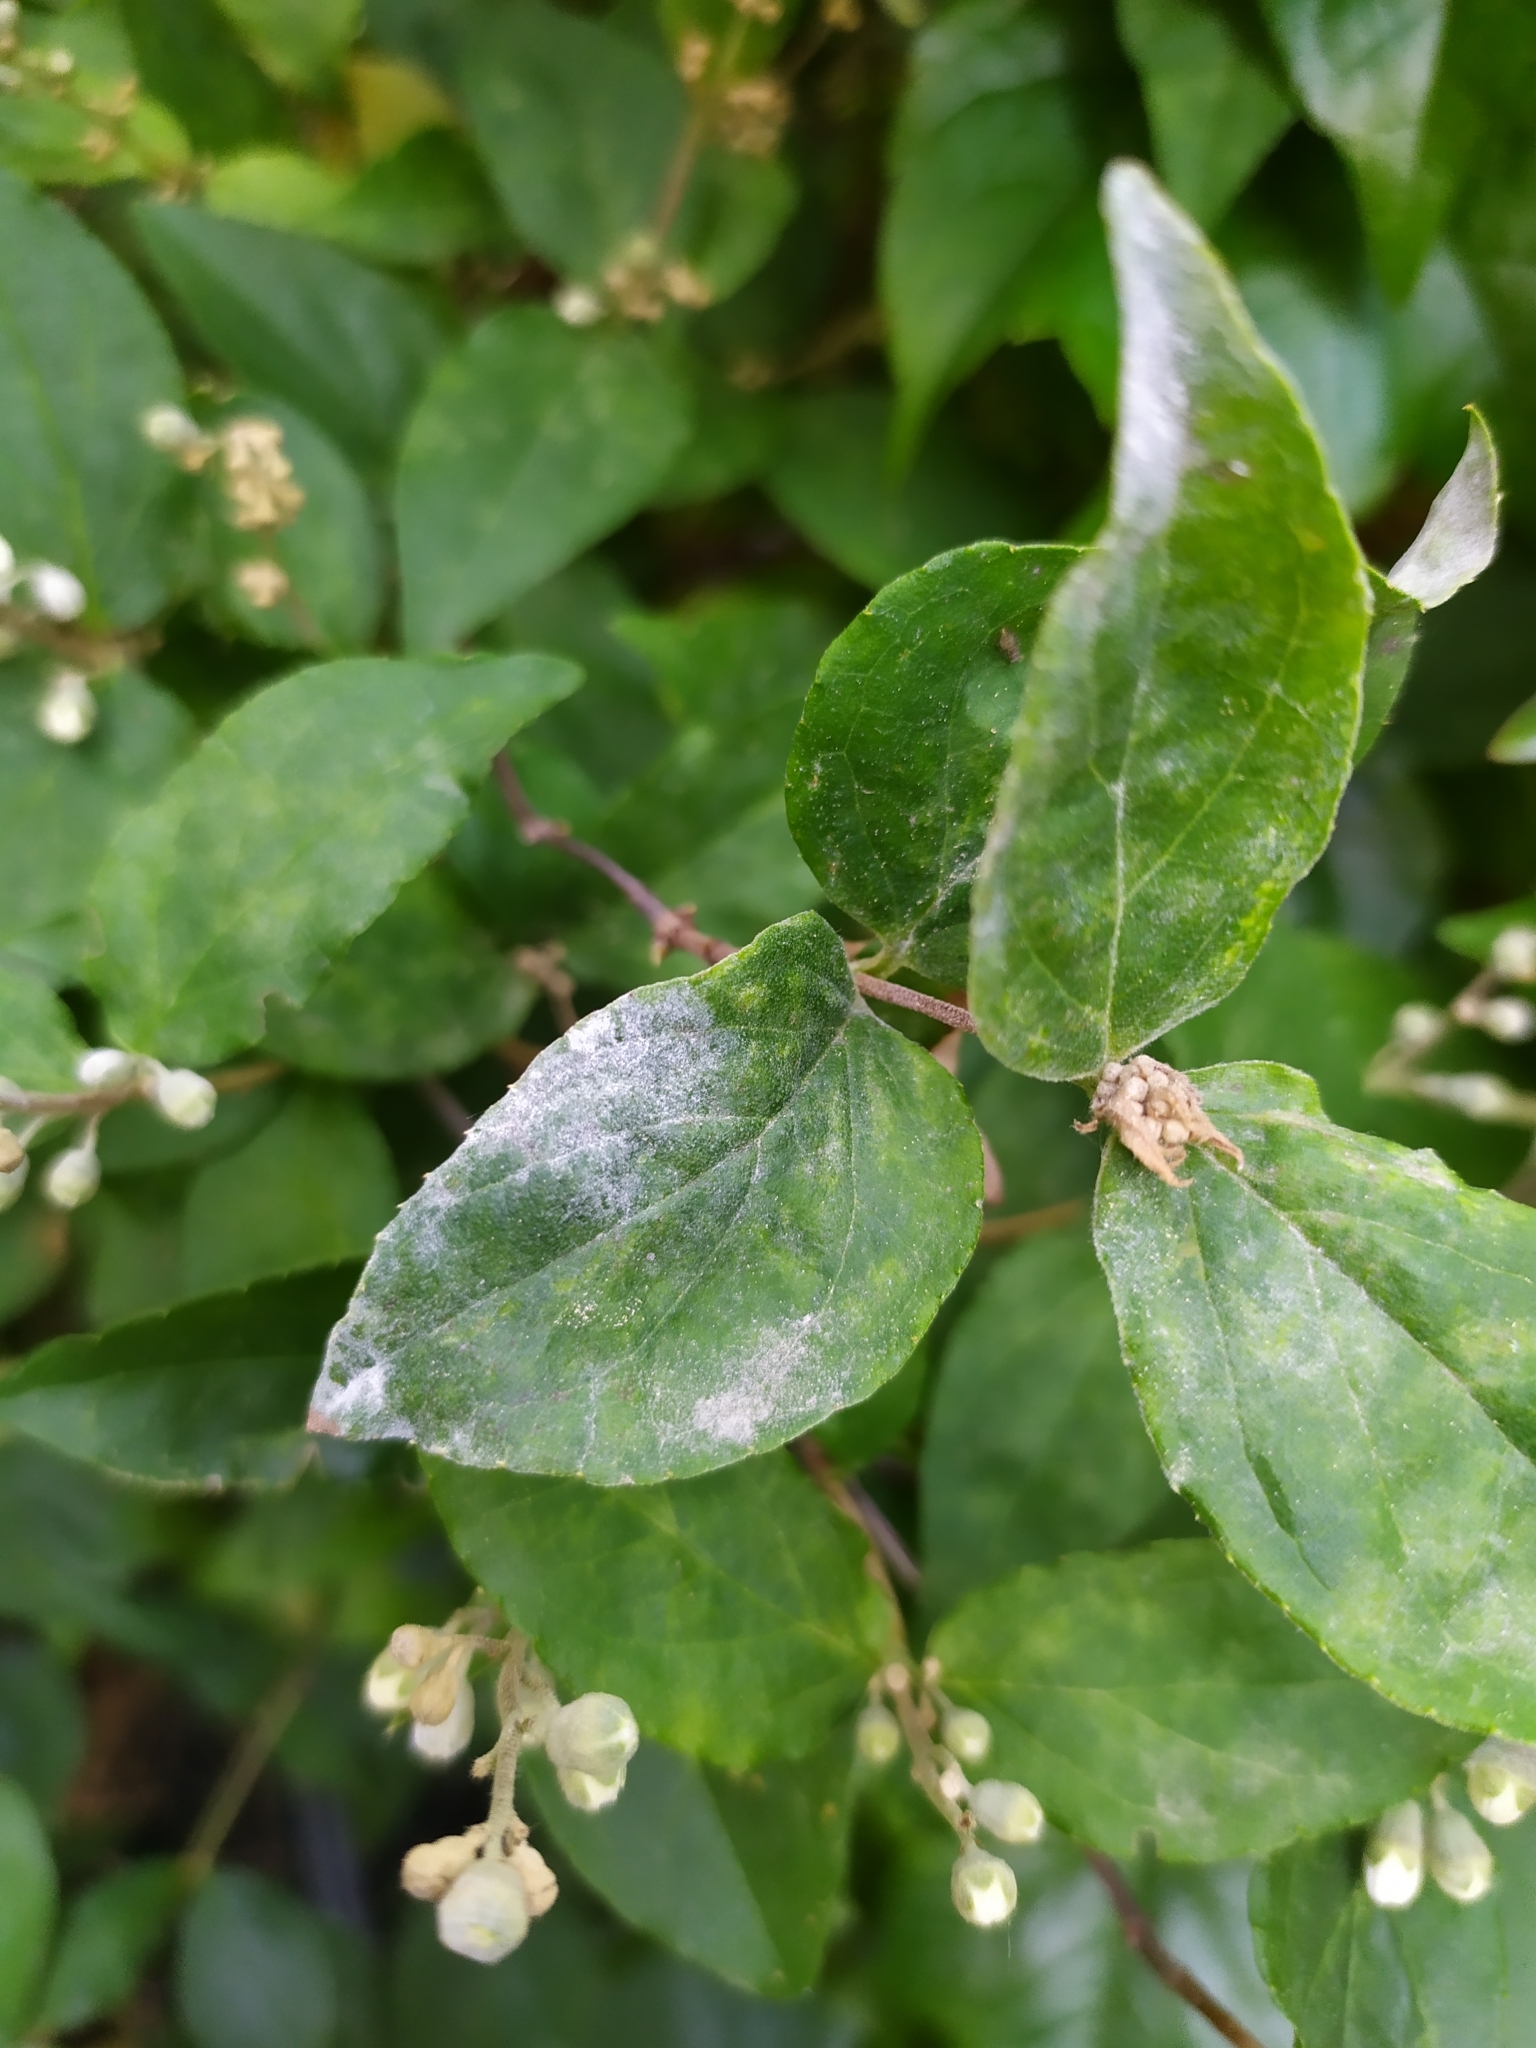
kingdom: Fungi
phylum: Ascomycota
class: Leotiomycetes
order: Helotiales
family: Erysiphaceae
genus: Erysiphe
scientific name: Erysiphe deutziae
